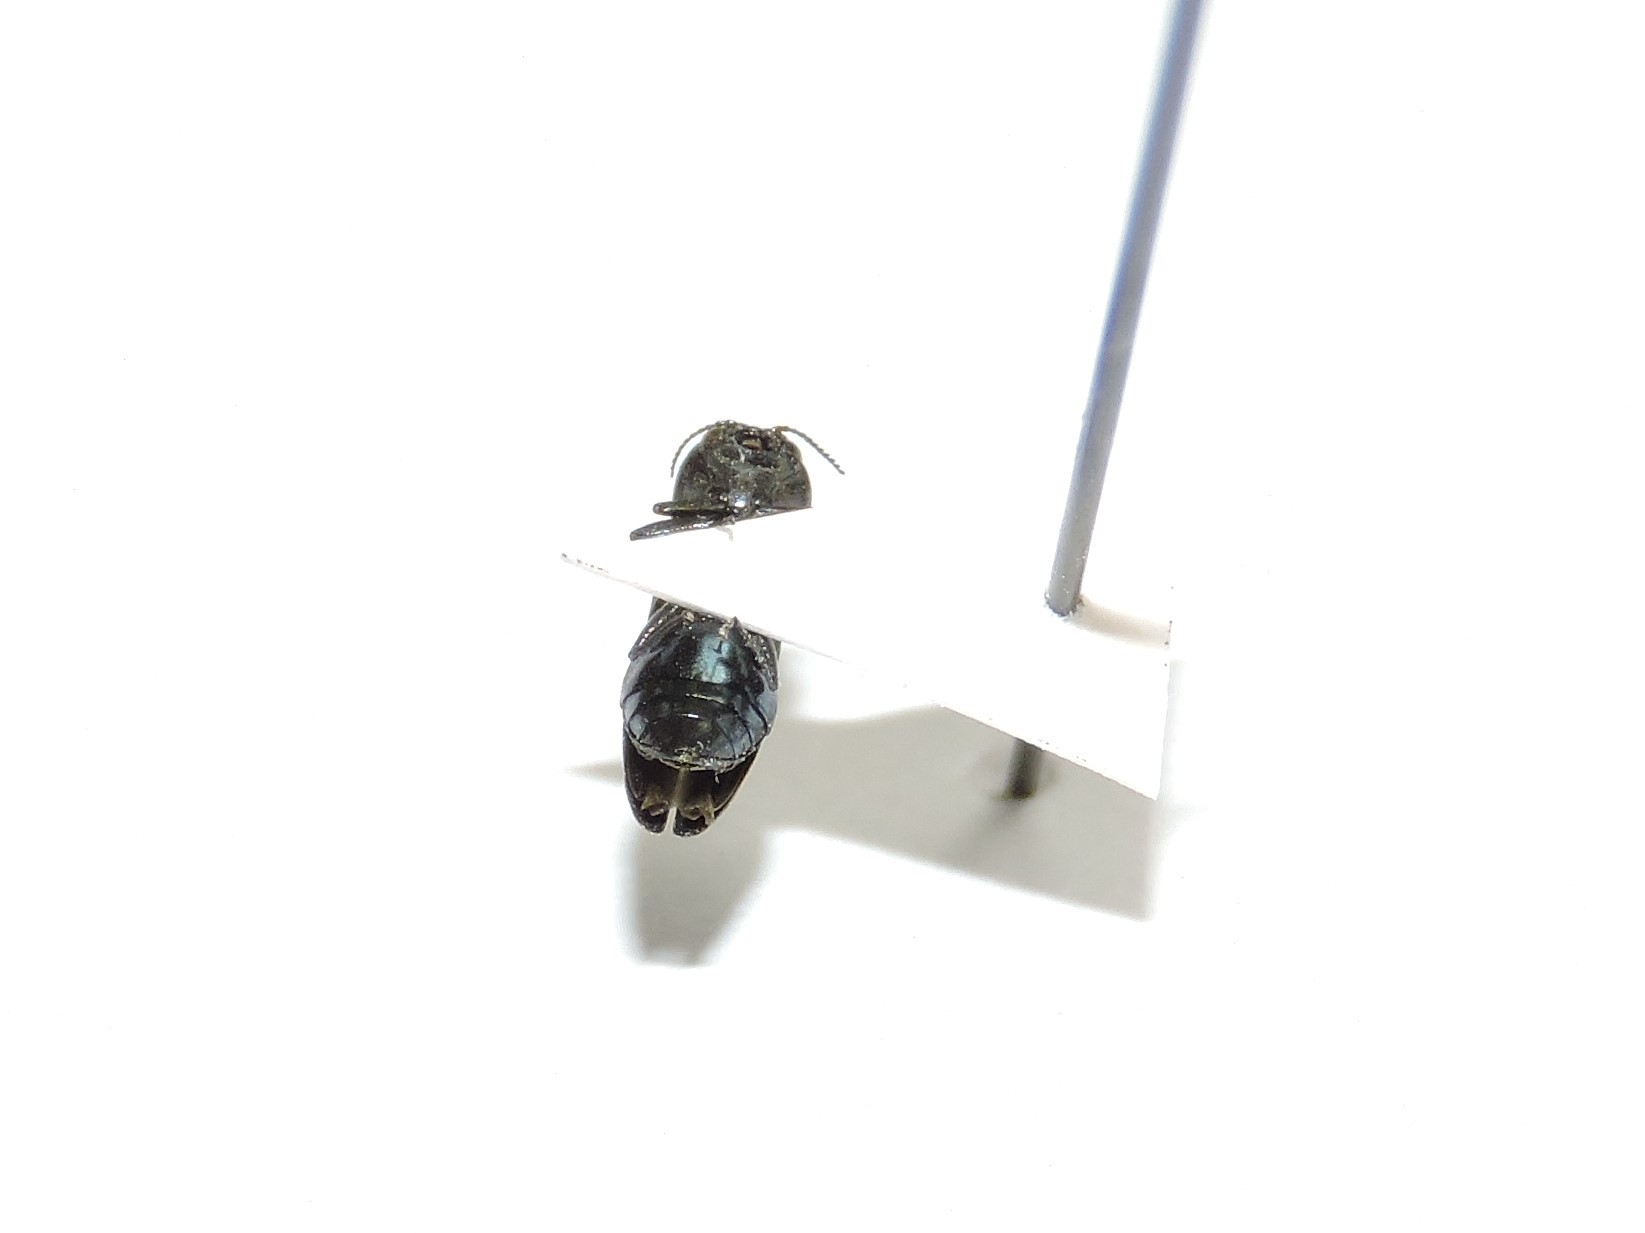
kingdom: Animalia
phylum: Arthropoda
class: Insecta
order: Coleoptera
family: Buprestidae
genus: Agrilus
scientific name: Agrilus cyanescens
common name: Bluish borer beetle
